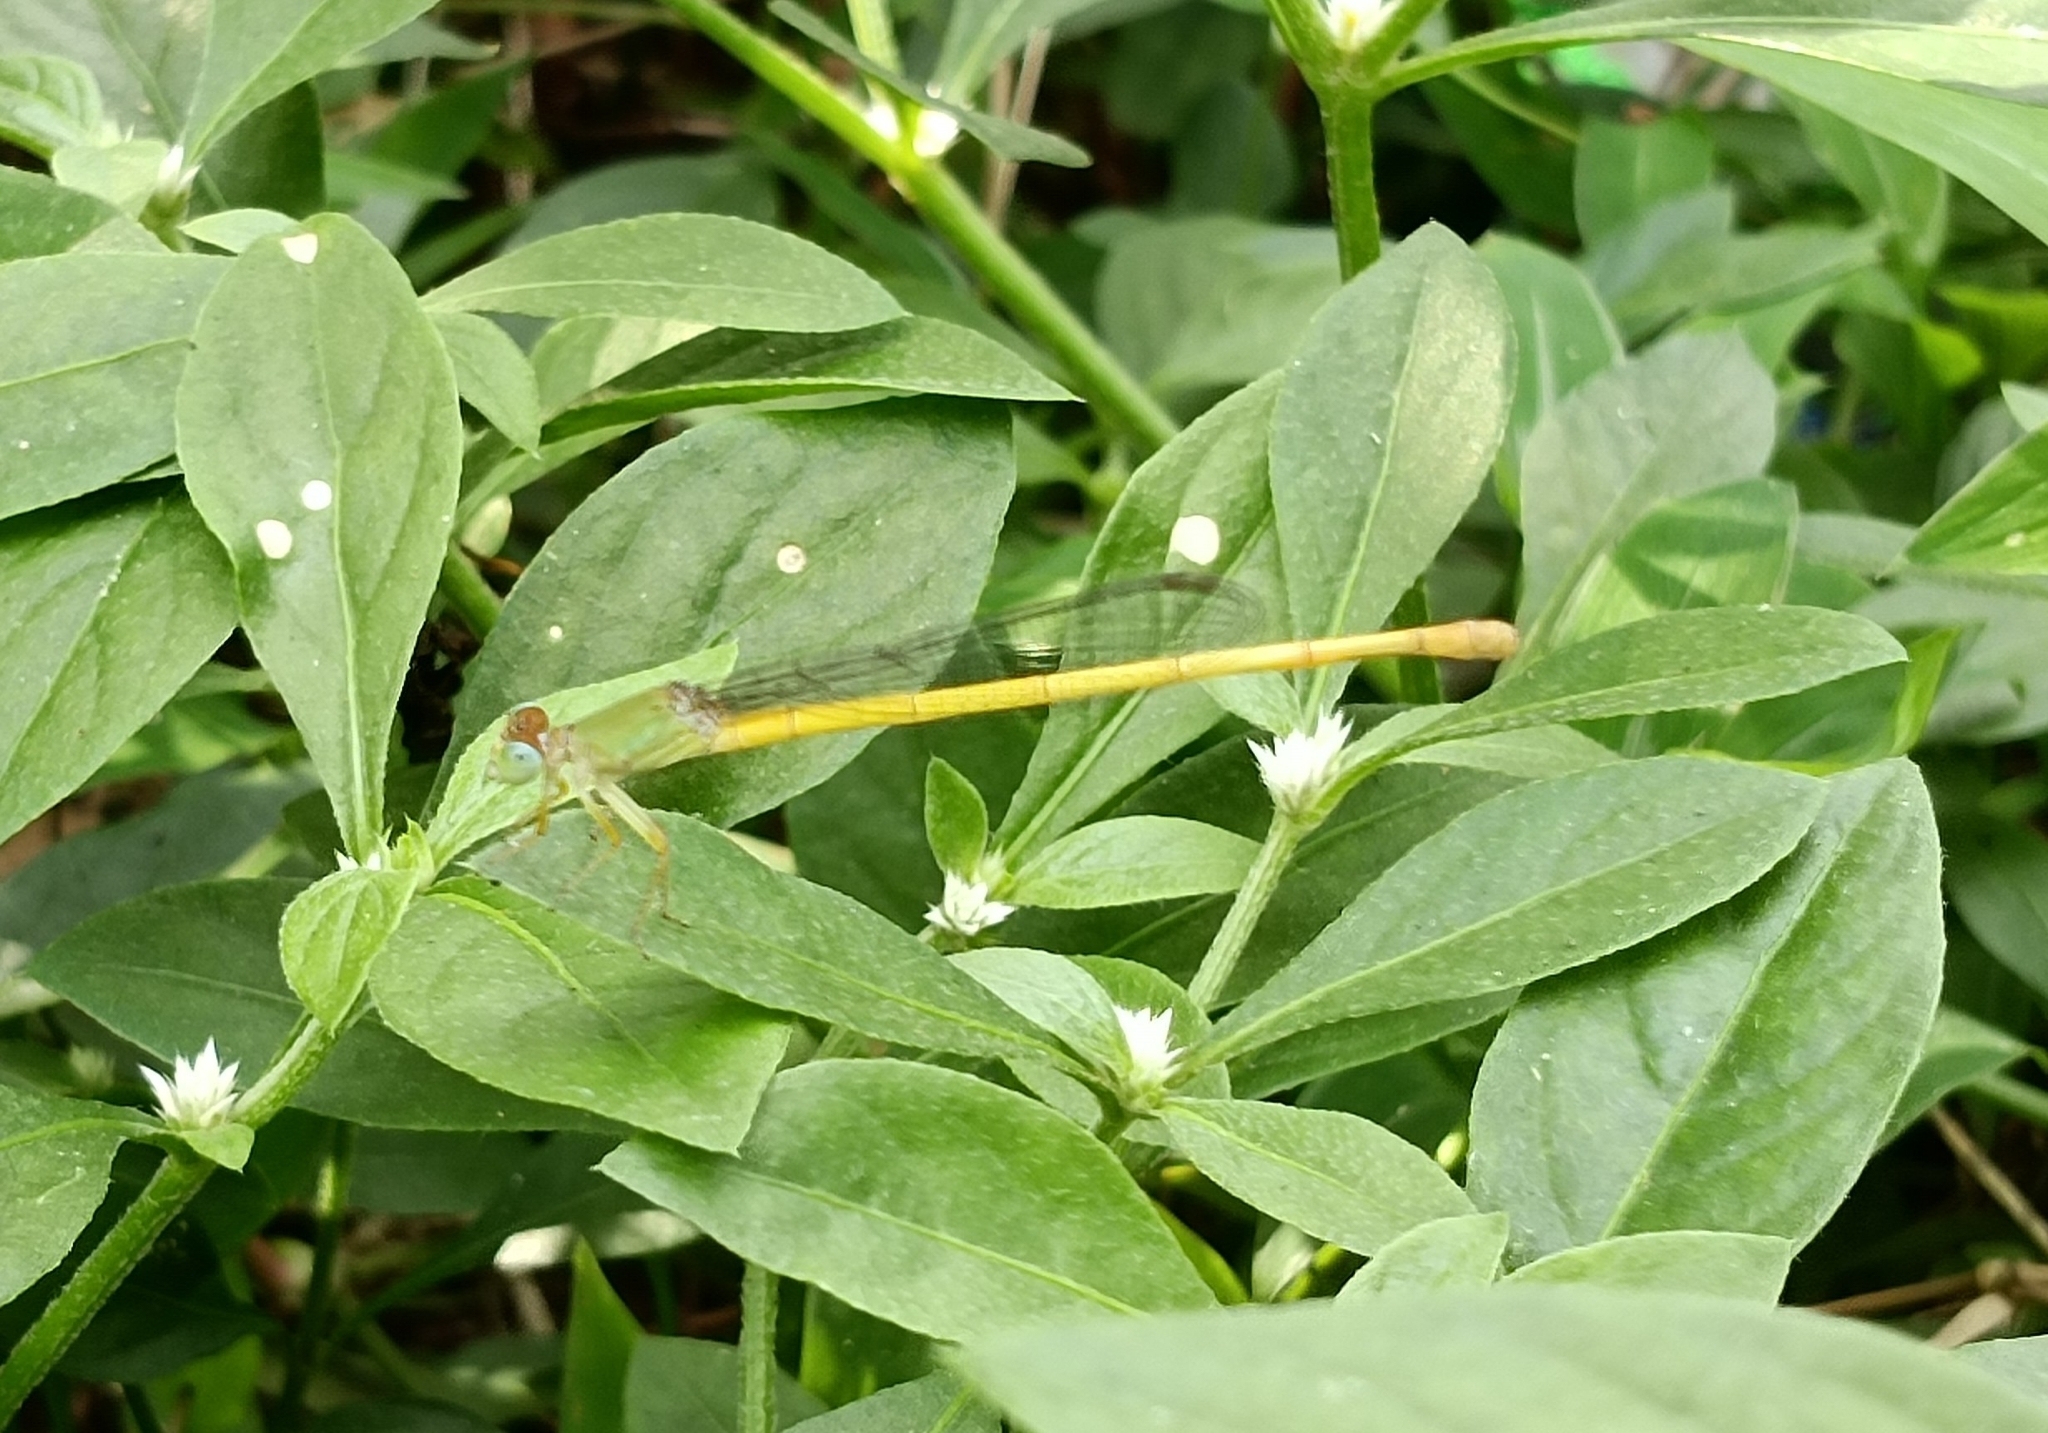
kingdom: Animalia
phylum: Arthropoda
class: Insecta
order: Odonata
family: Coenagrionidae
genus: Ceriagrion
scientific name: Ceriagrion coromandelianum
